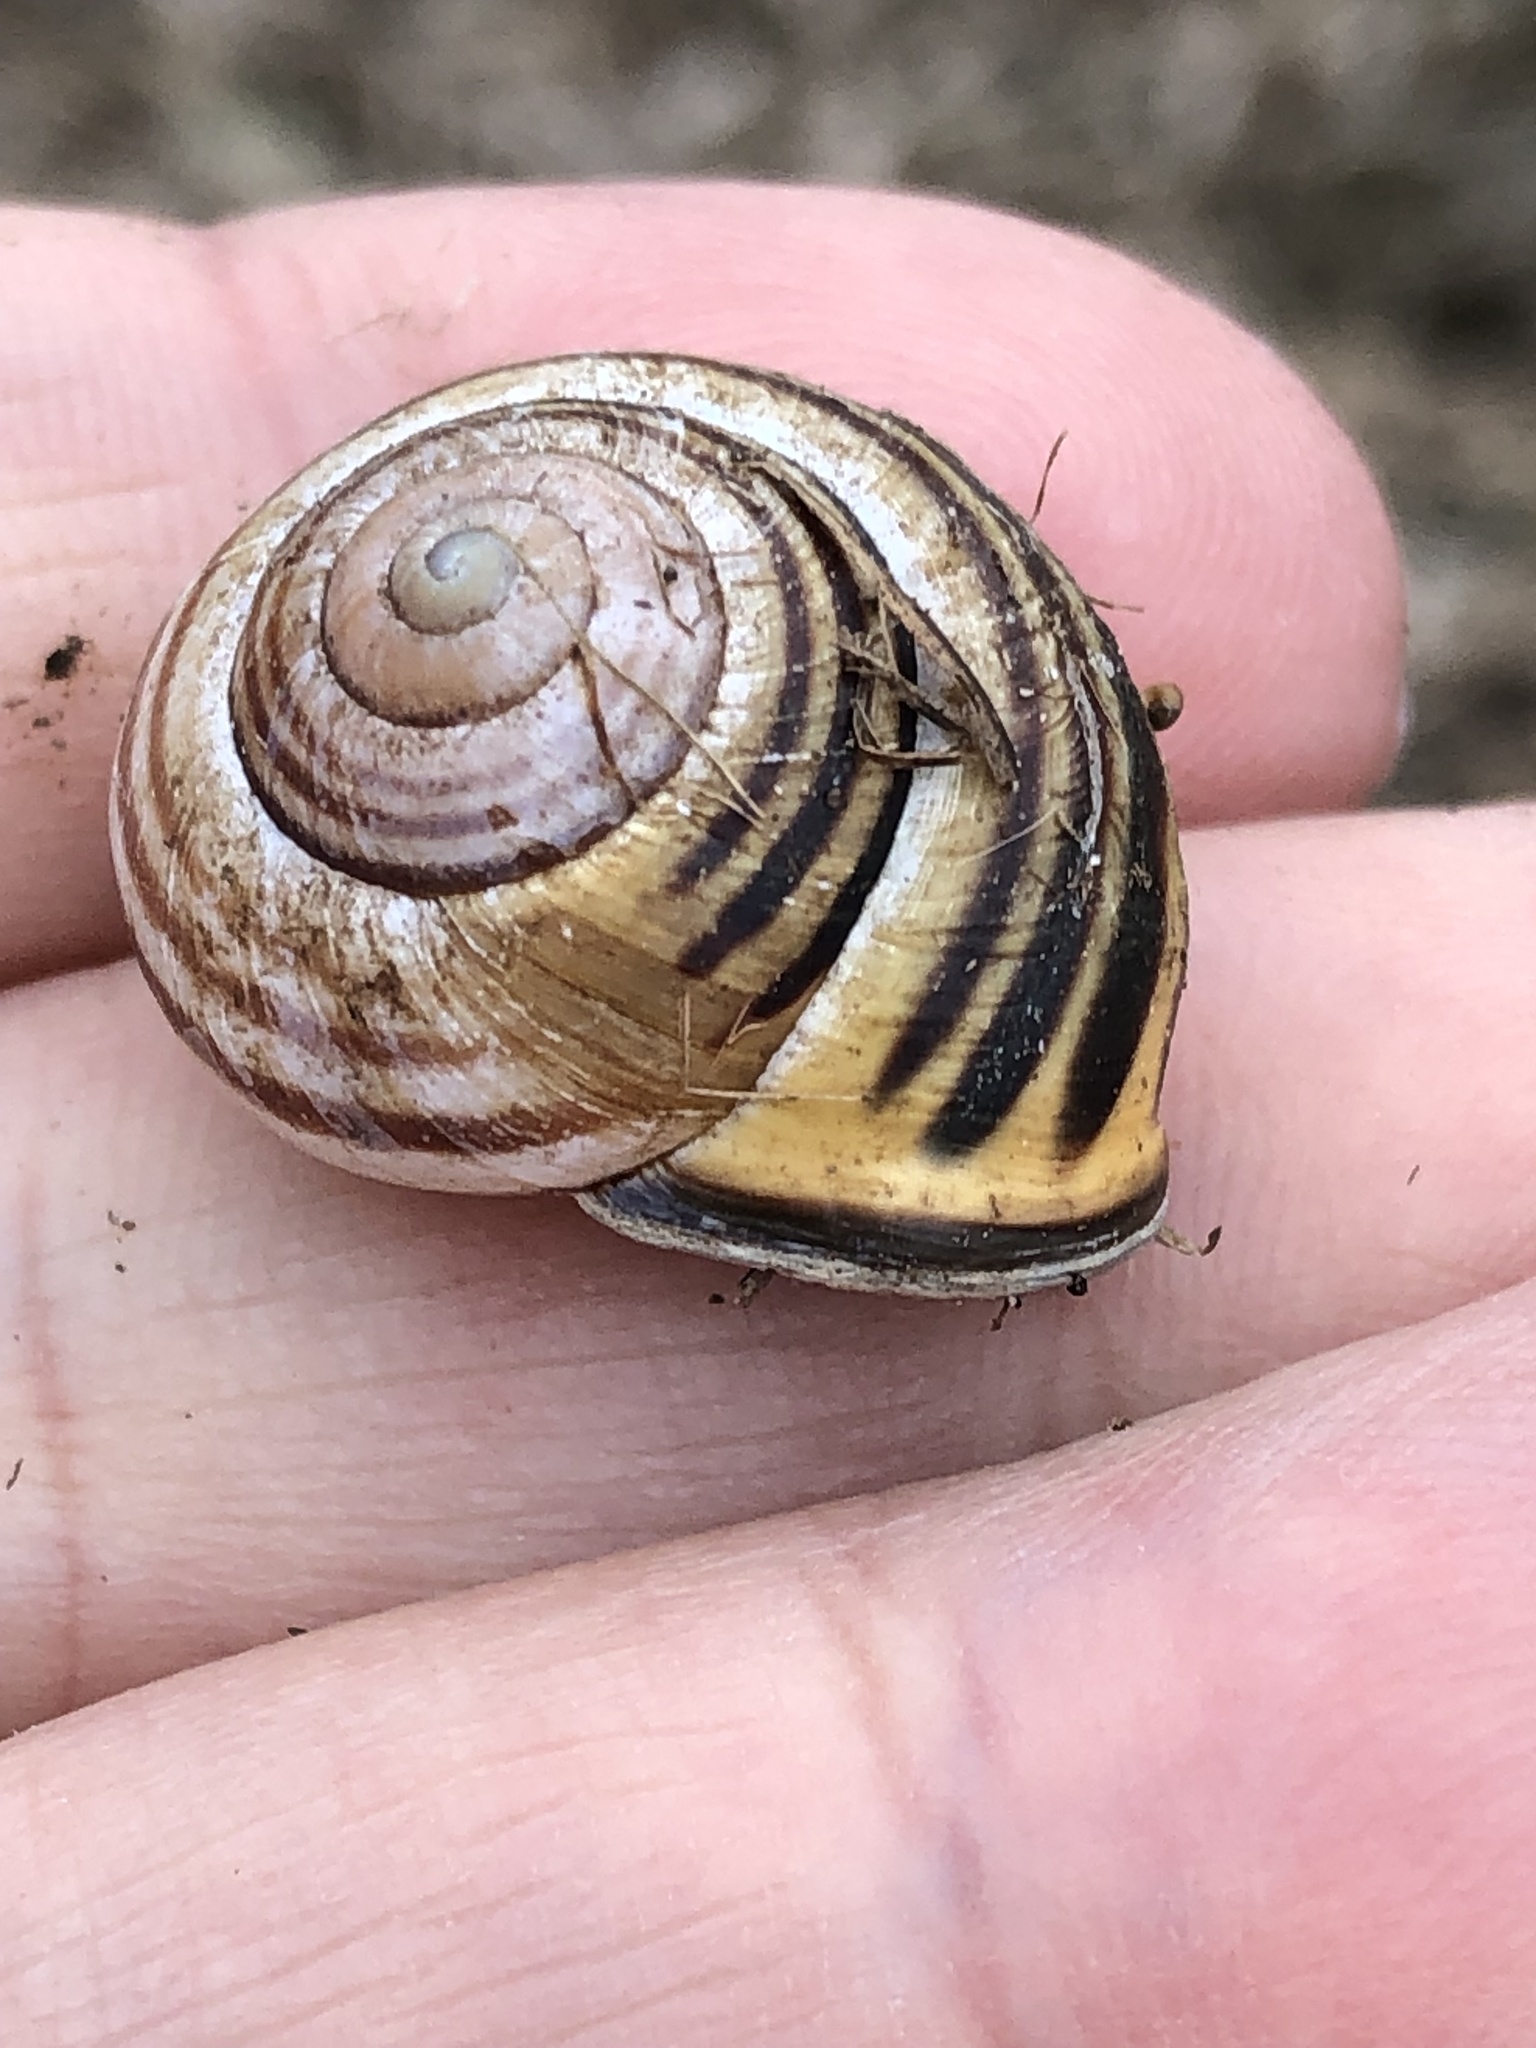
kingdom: Animalia
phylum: Mollusca
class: Gastropoda
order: Stylommatophora
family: Helicidae
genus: Cepaea
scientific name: Cepaea nemoralis
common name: Grovesnail
